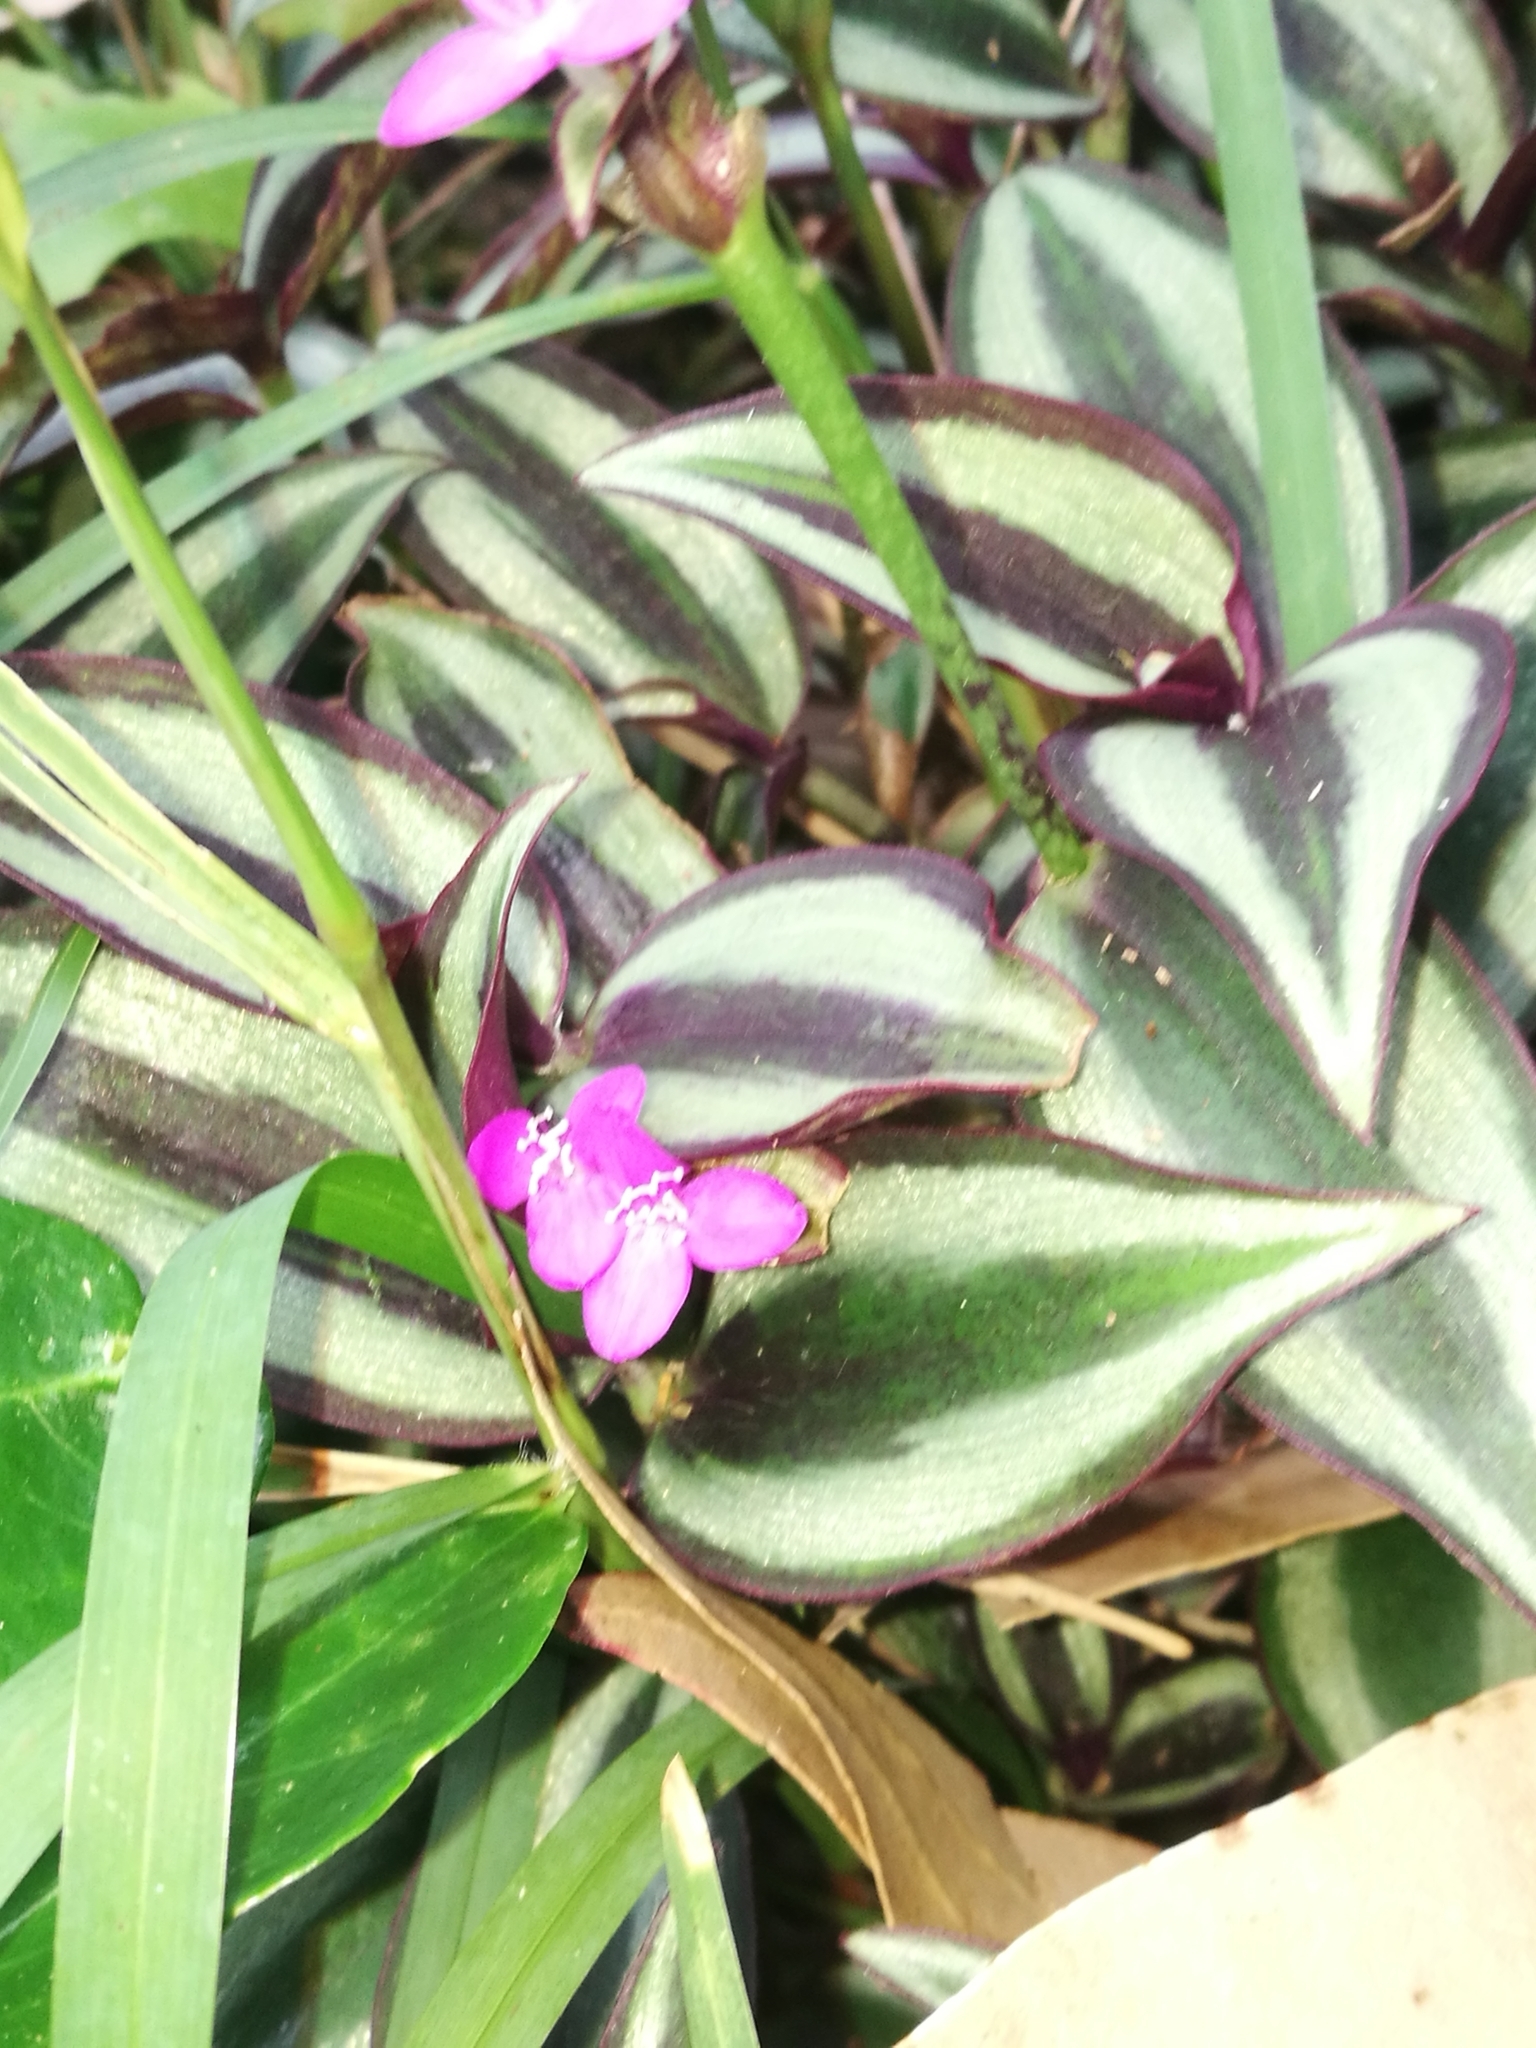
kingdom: Plantae
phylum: Tracheophyta
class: Liliopsida
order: Commelinales
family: Commelinaceae
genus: Tradescantia
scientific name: Tradescantia zebrina
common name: Inchplant
